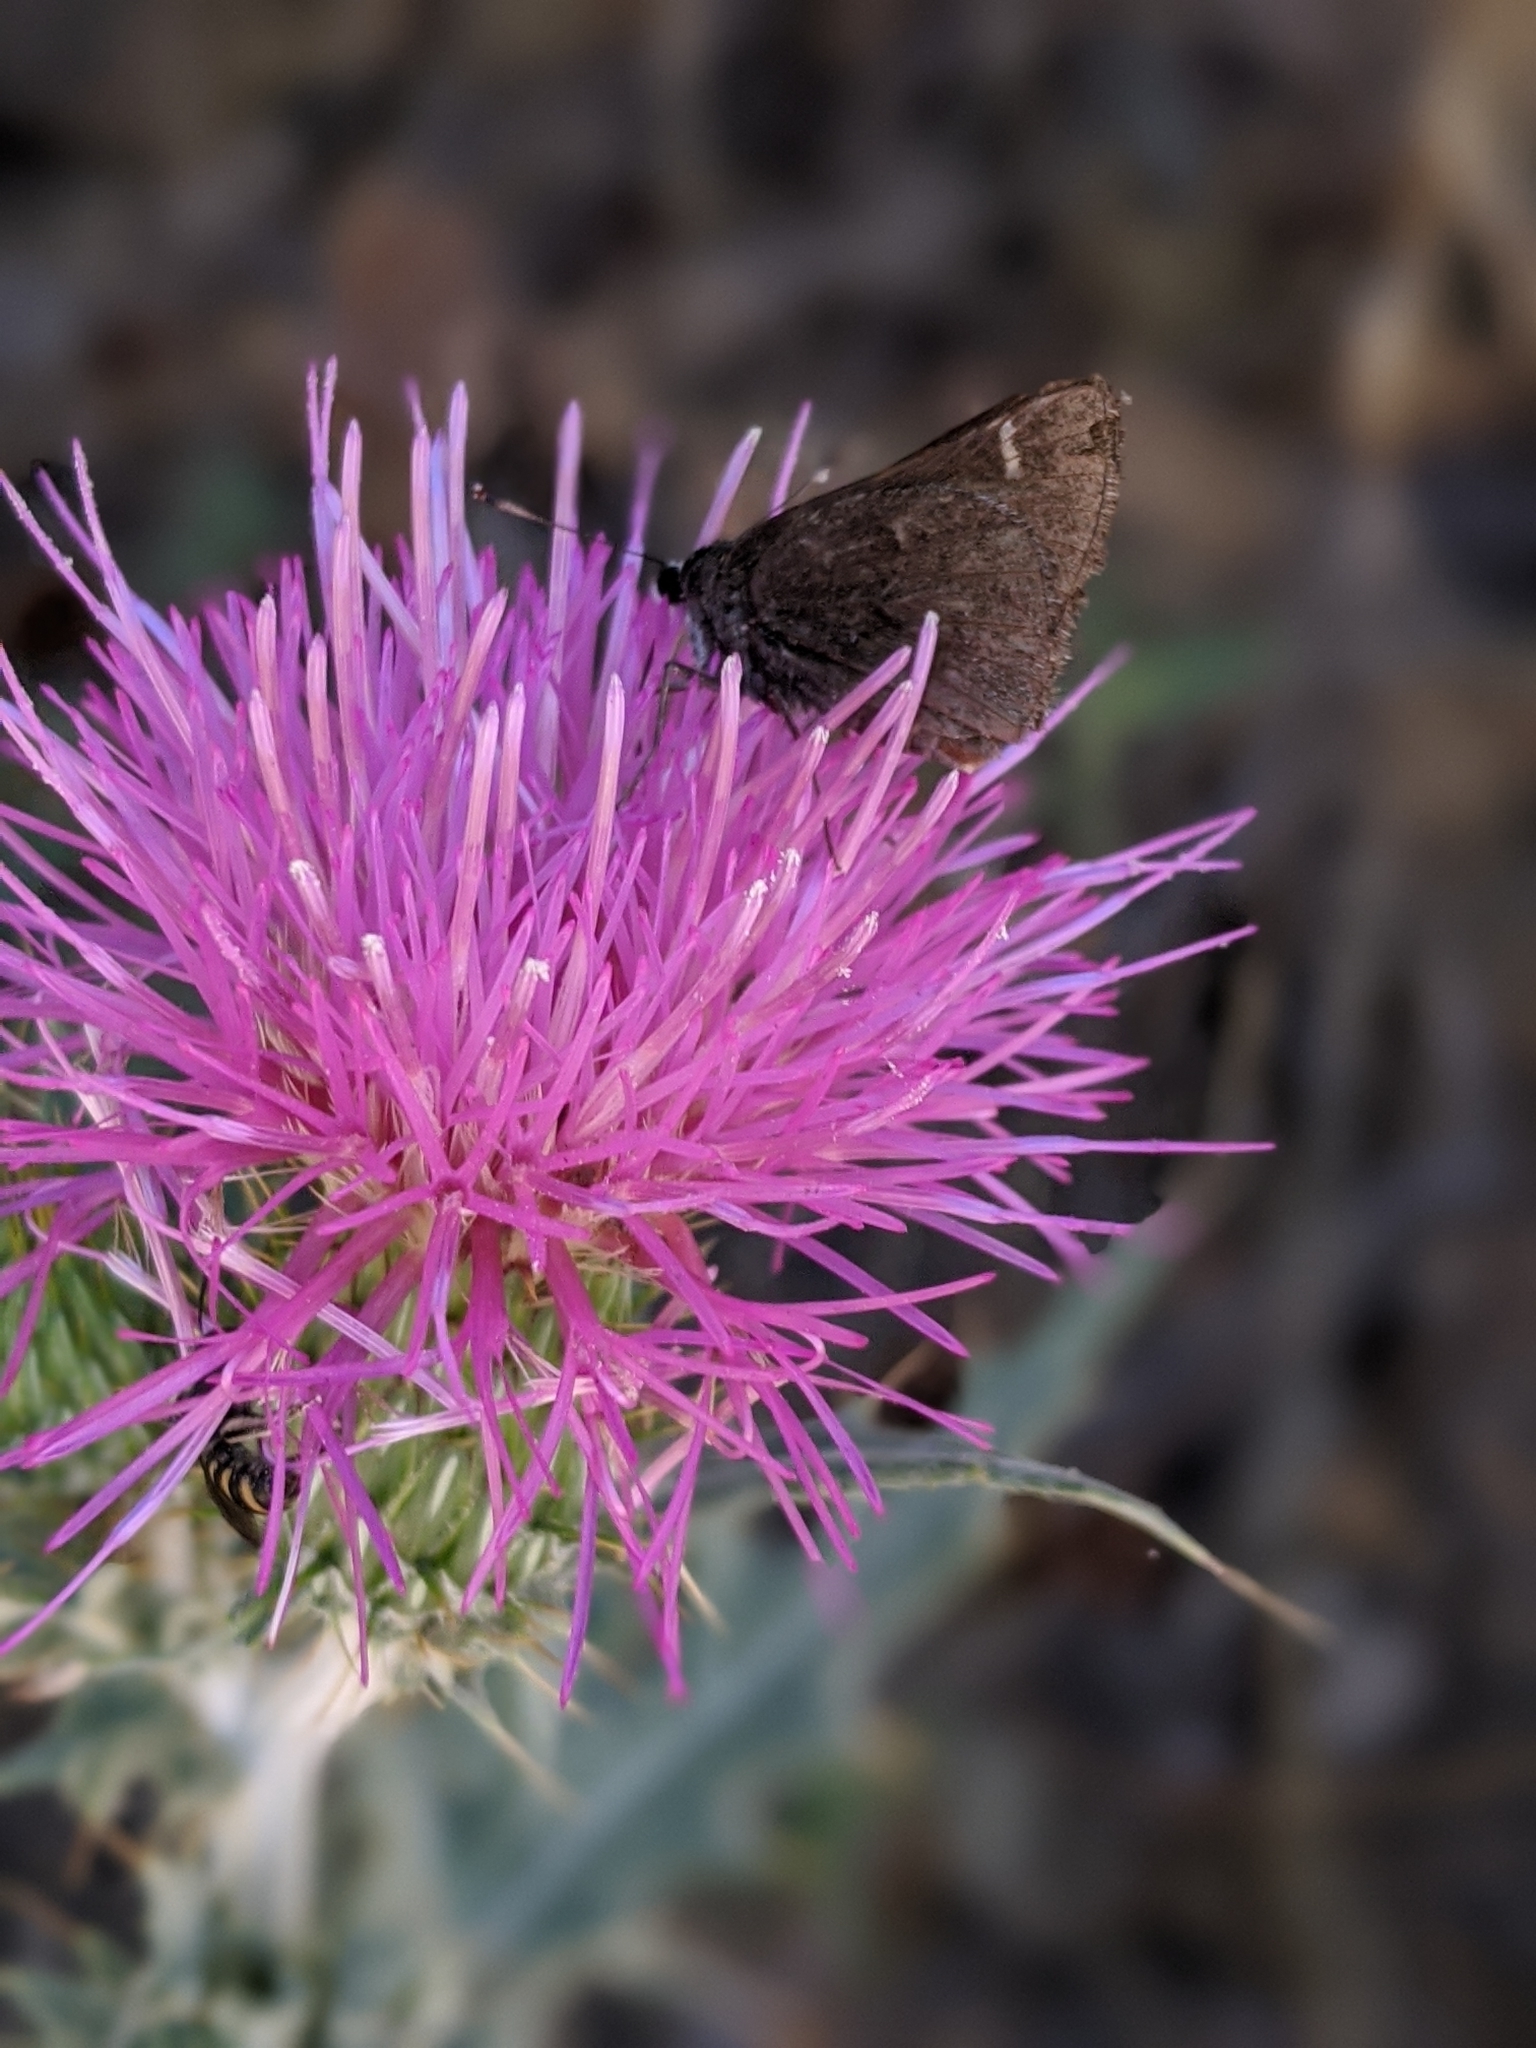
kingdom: Animalia
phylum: Arthropoda
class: Insecta
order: Lepidoptera
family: Hesperiidae
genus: Atrytonopsis
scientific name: Atrytonopsis deva
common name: Deva skipper
